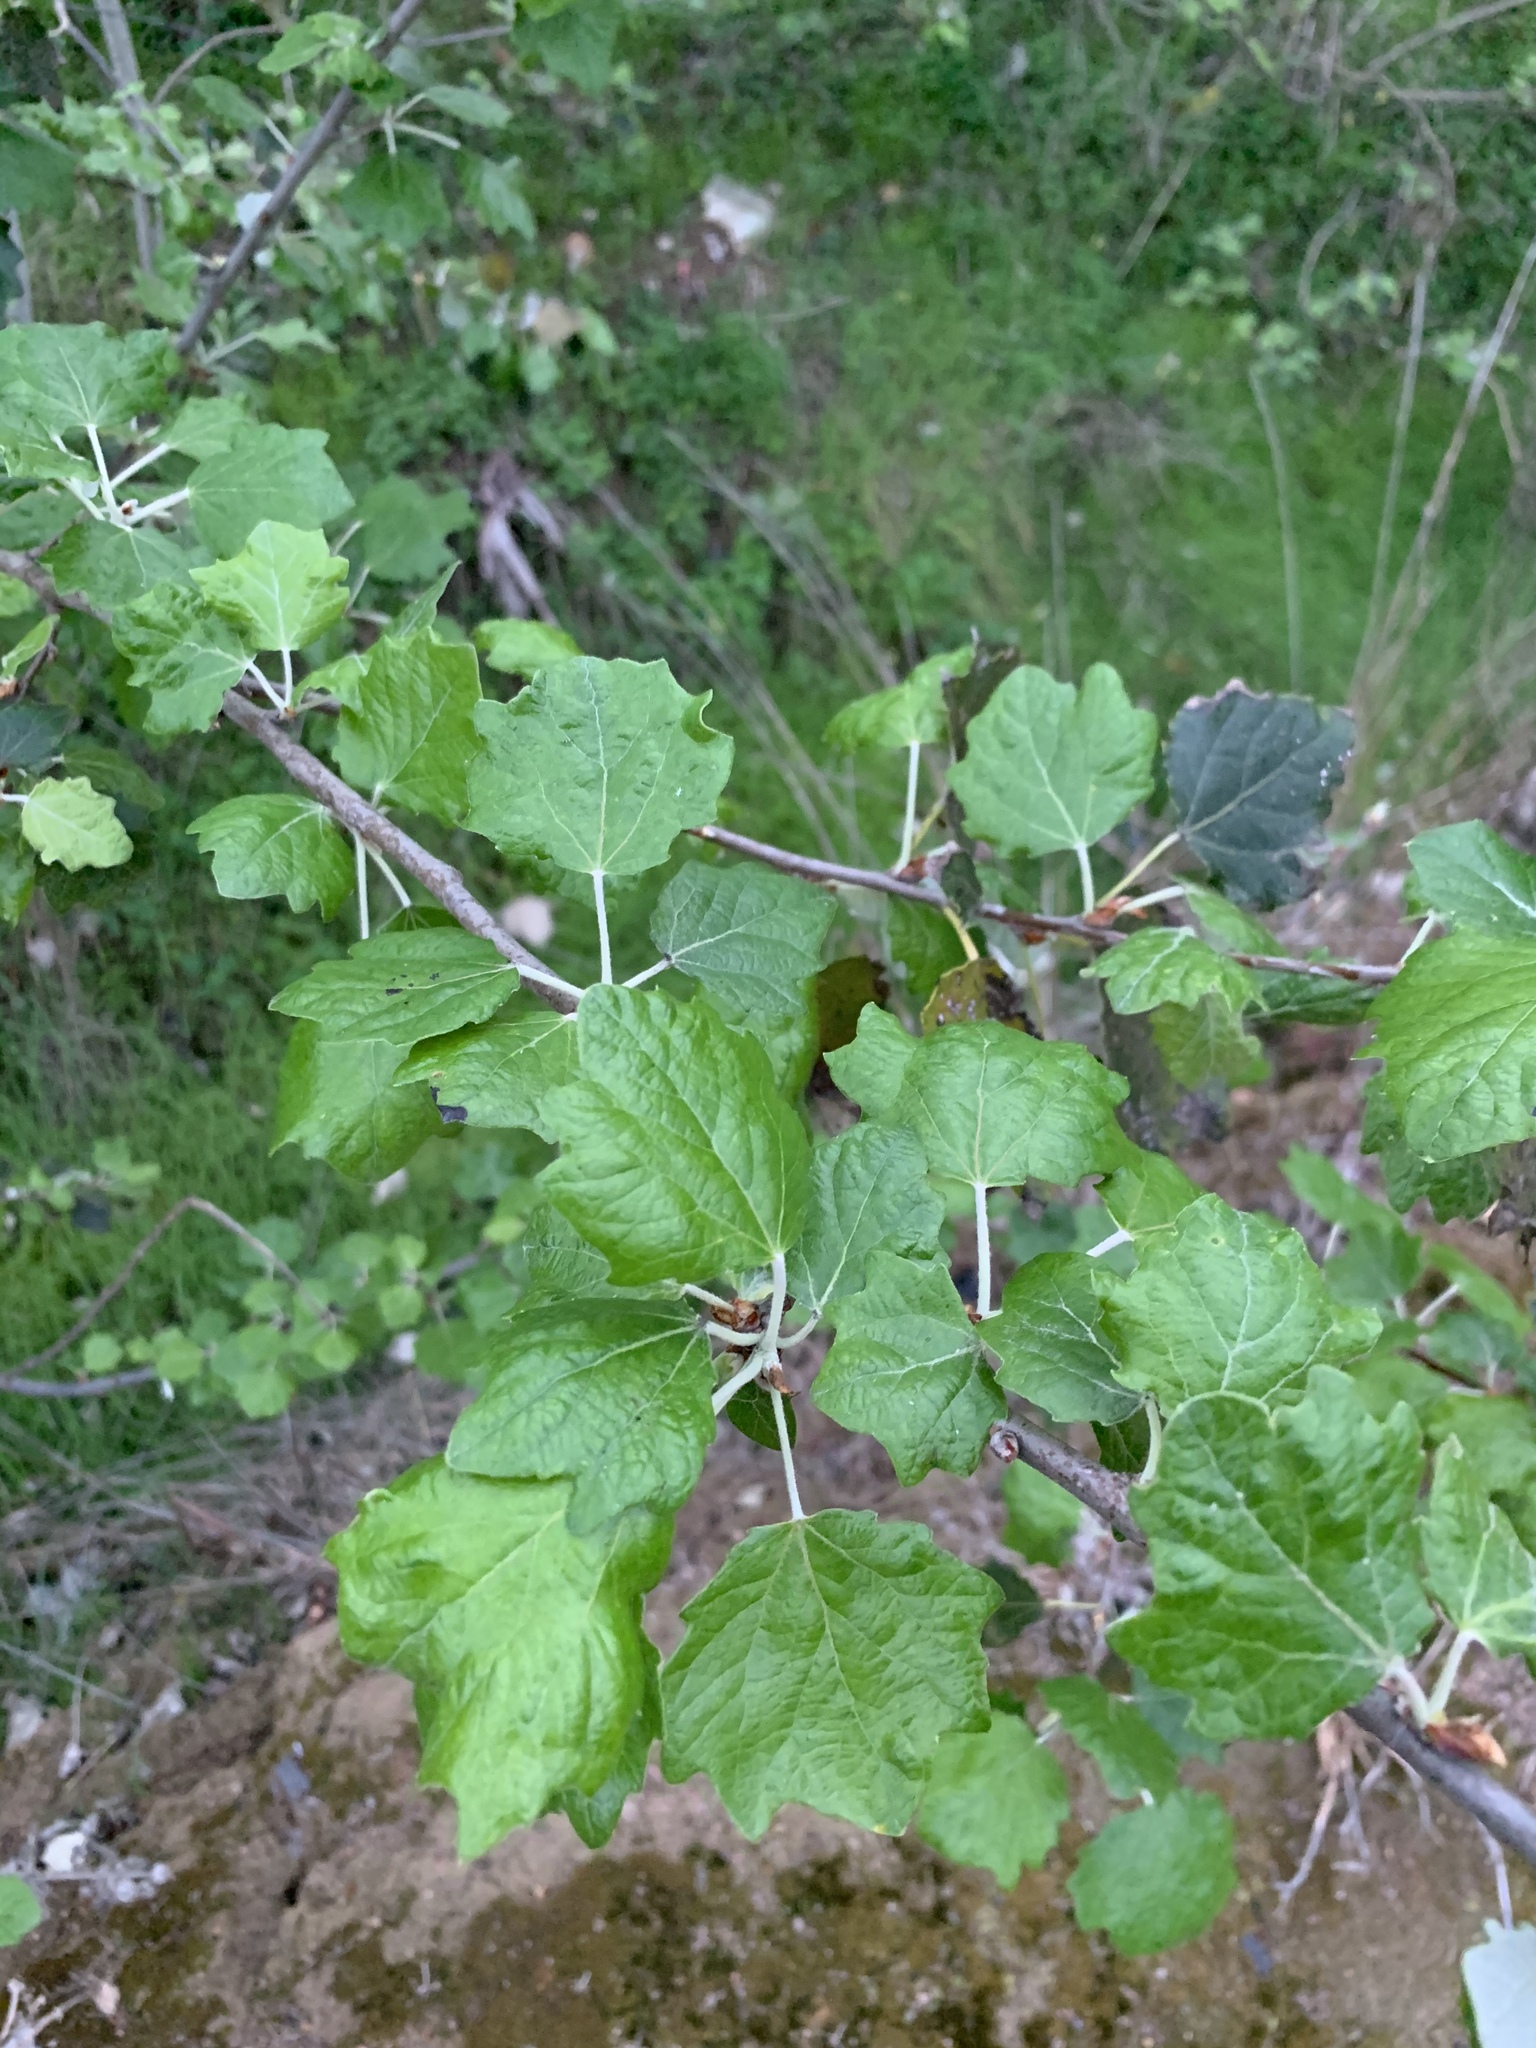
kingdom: Plantae
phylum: Tracheophyta
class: Magnoliopsida
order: Malpighiales
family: Salicaceae
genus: Populus
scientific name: Populus canescens
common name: Gray poplar
